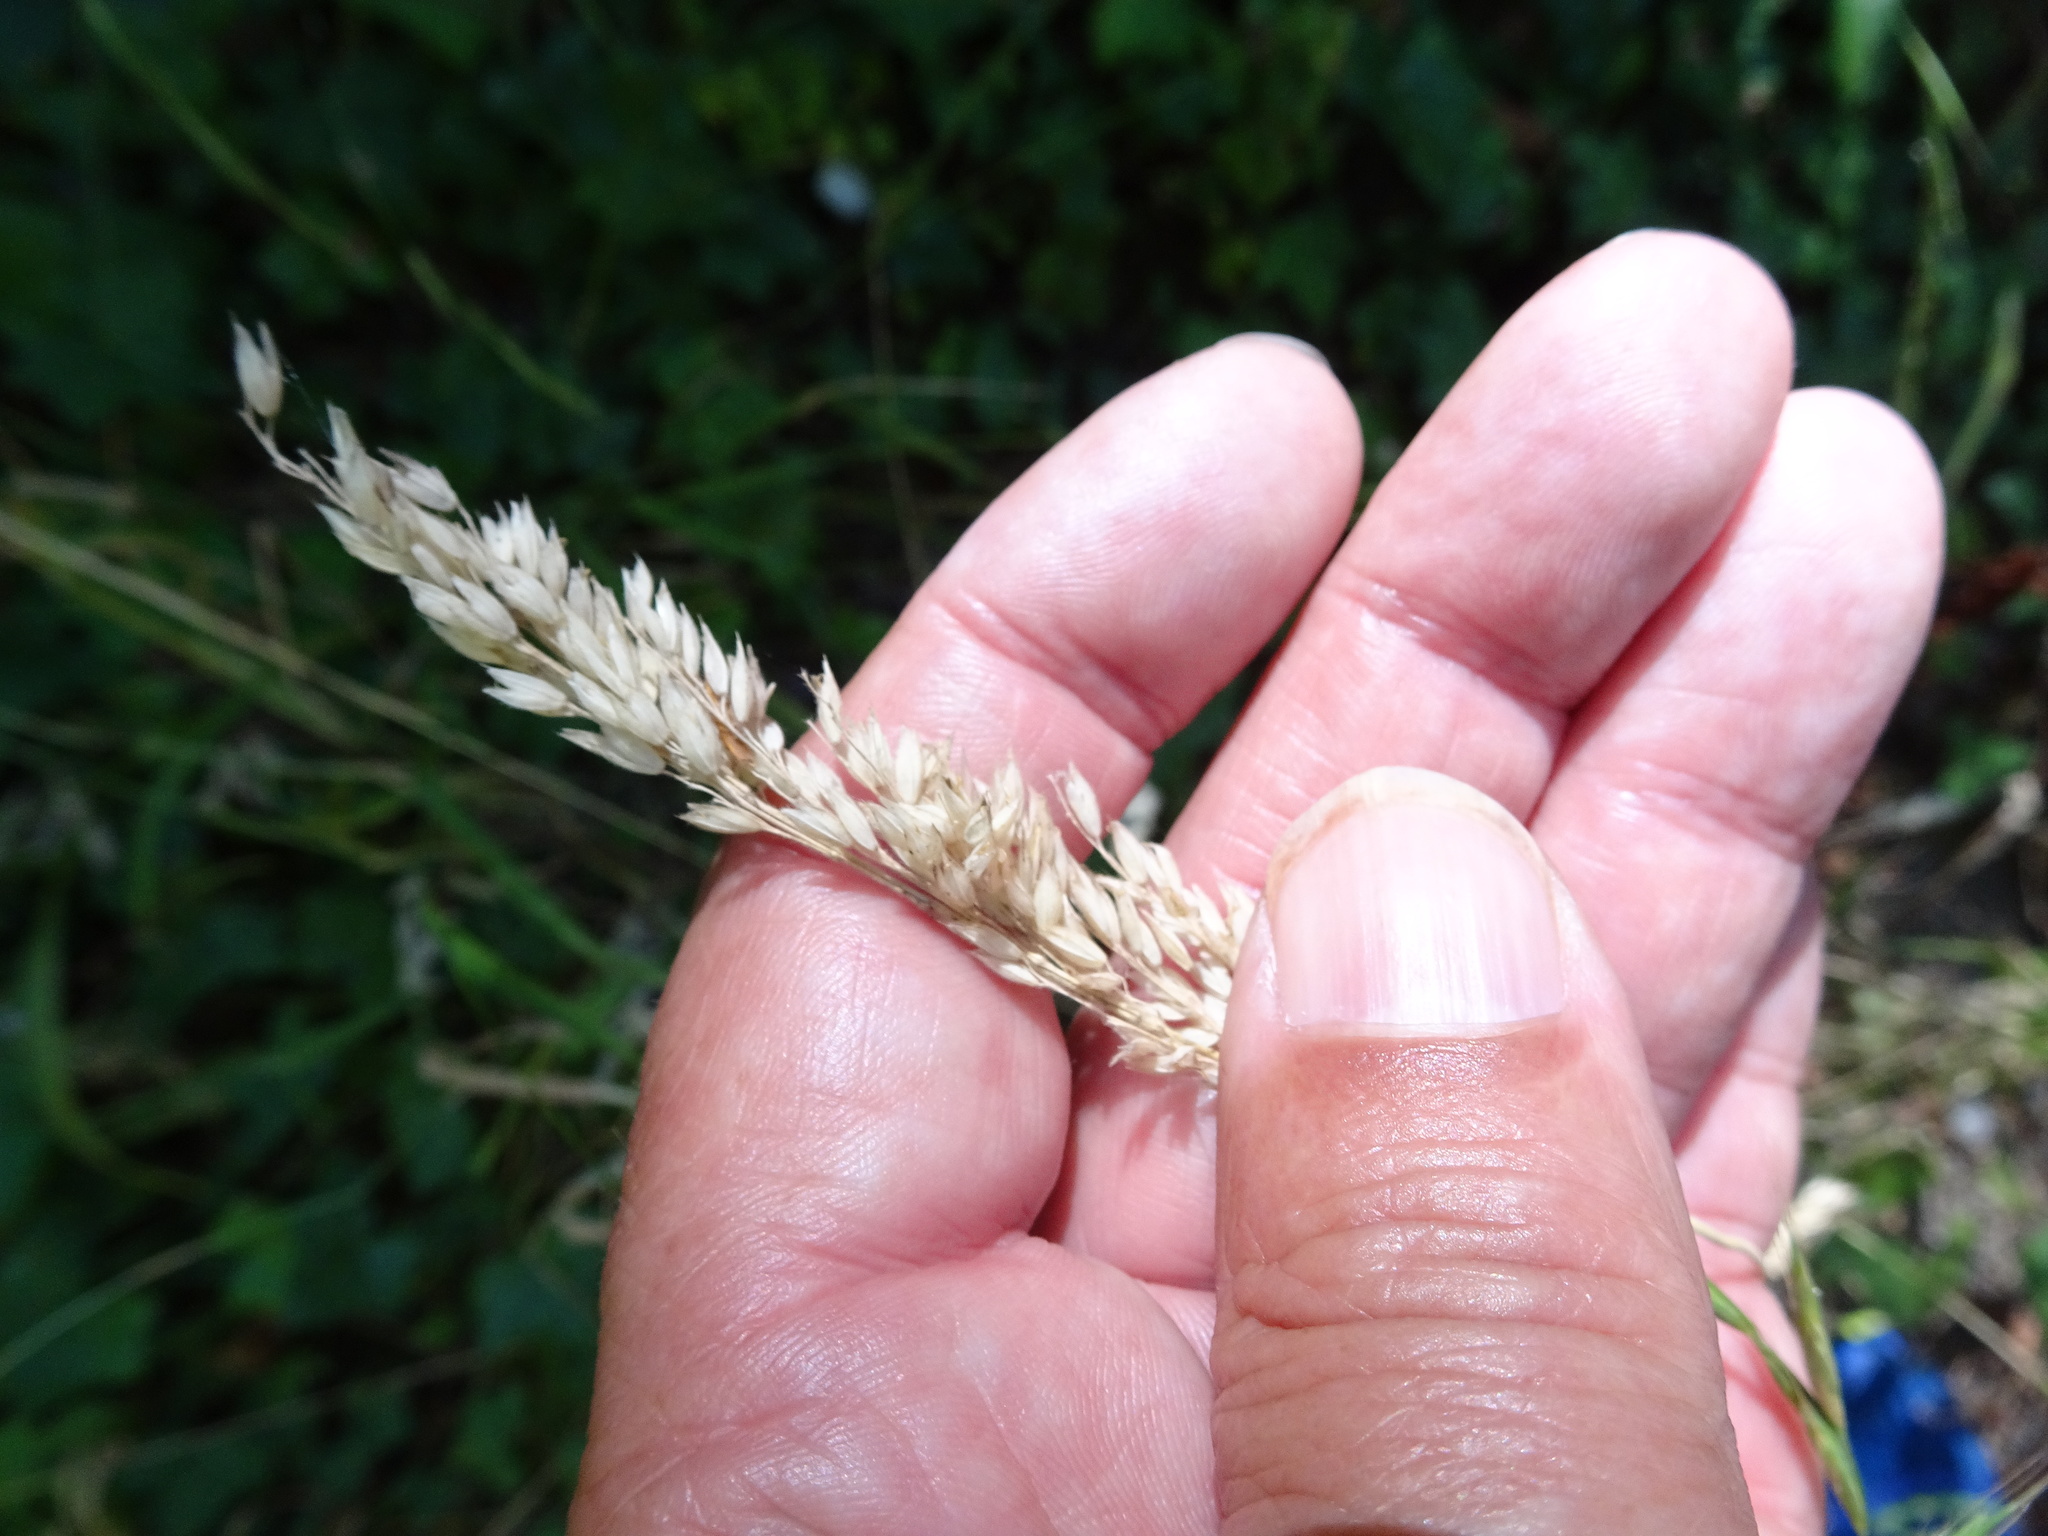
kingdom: Plantae
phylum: Tracheophyta
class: Liliopsida
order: Poales
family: Poaceae
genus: Holcus
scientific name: Holcus lanatus
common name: Yorkshire-fog
